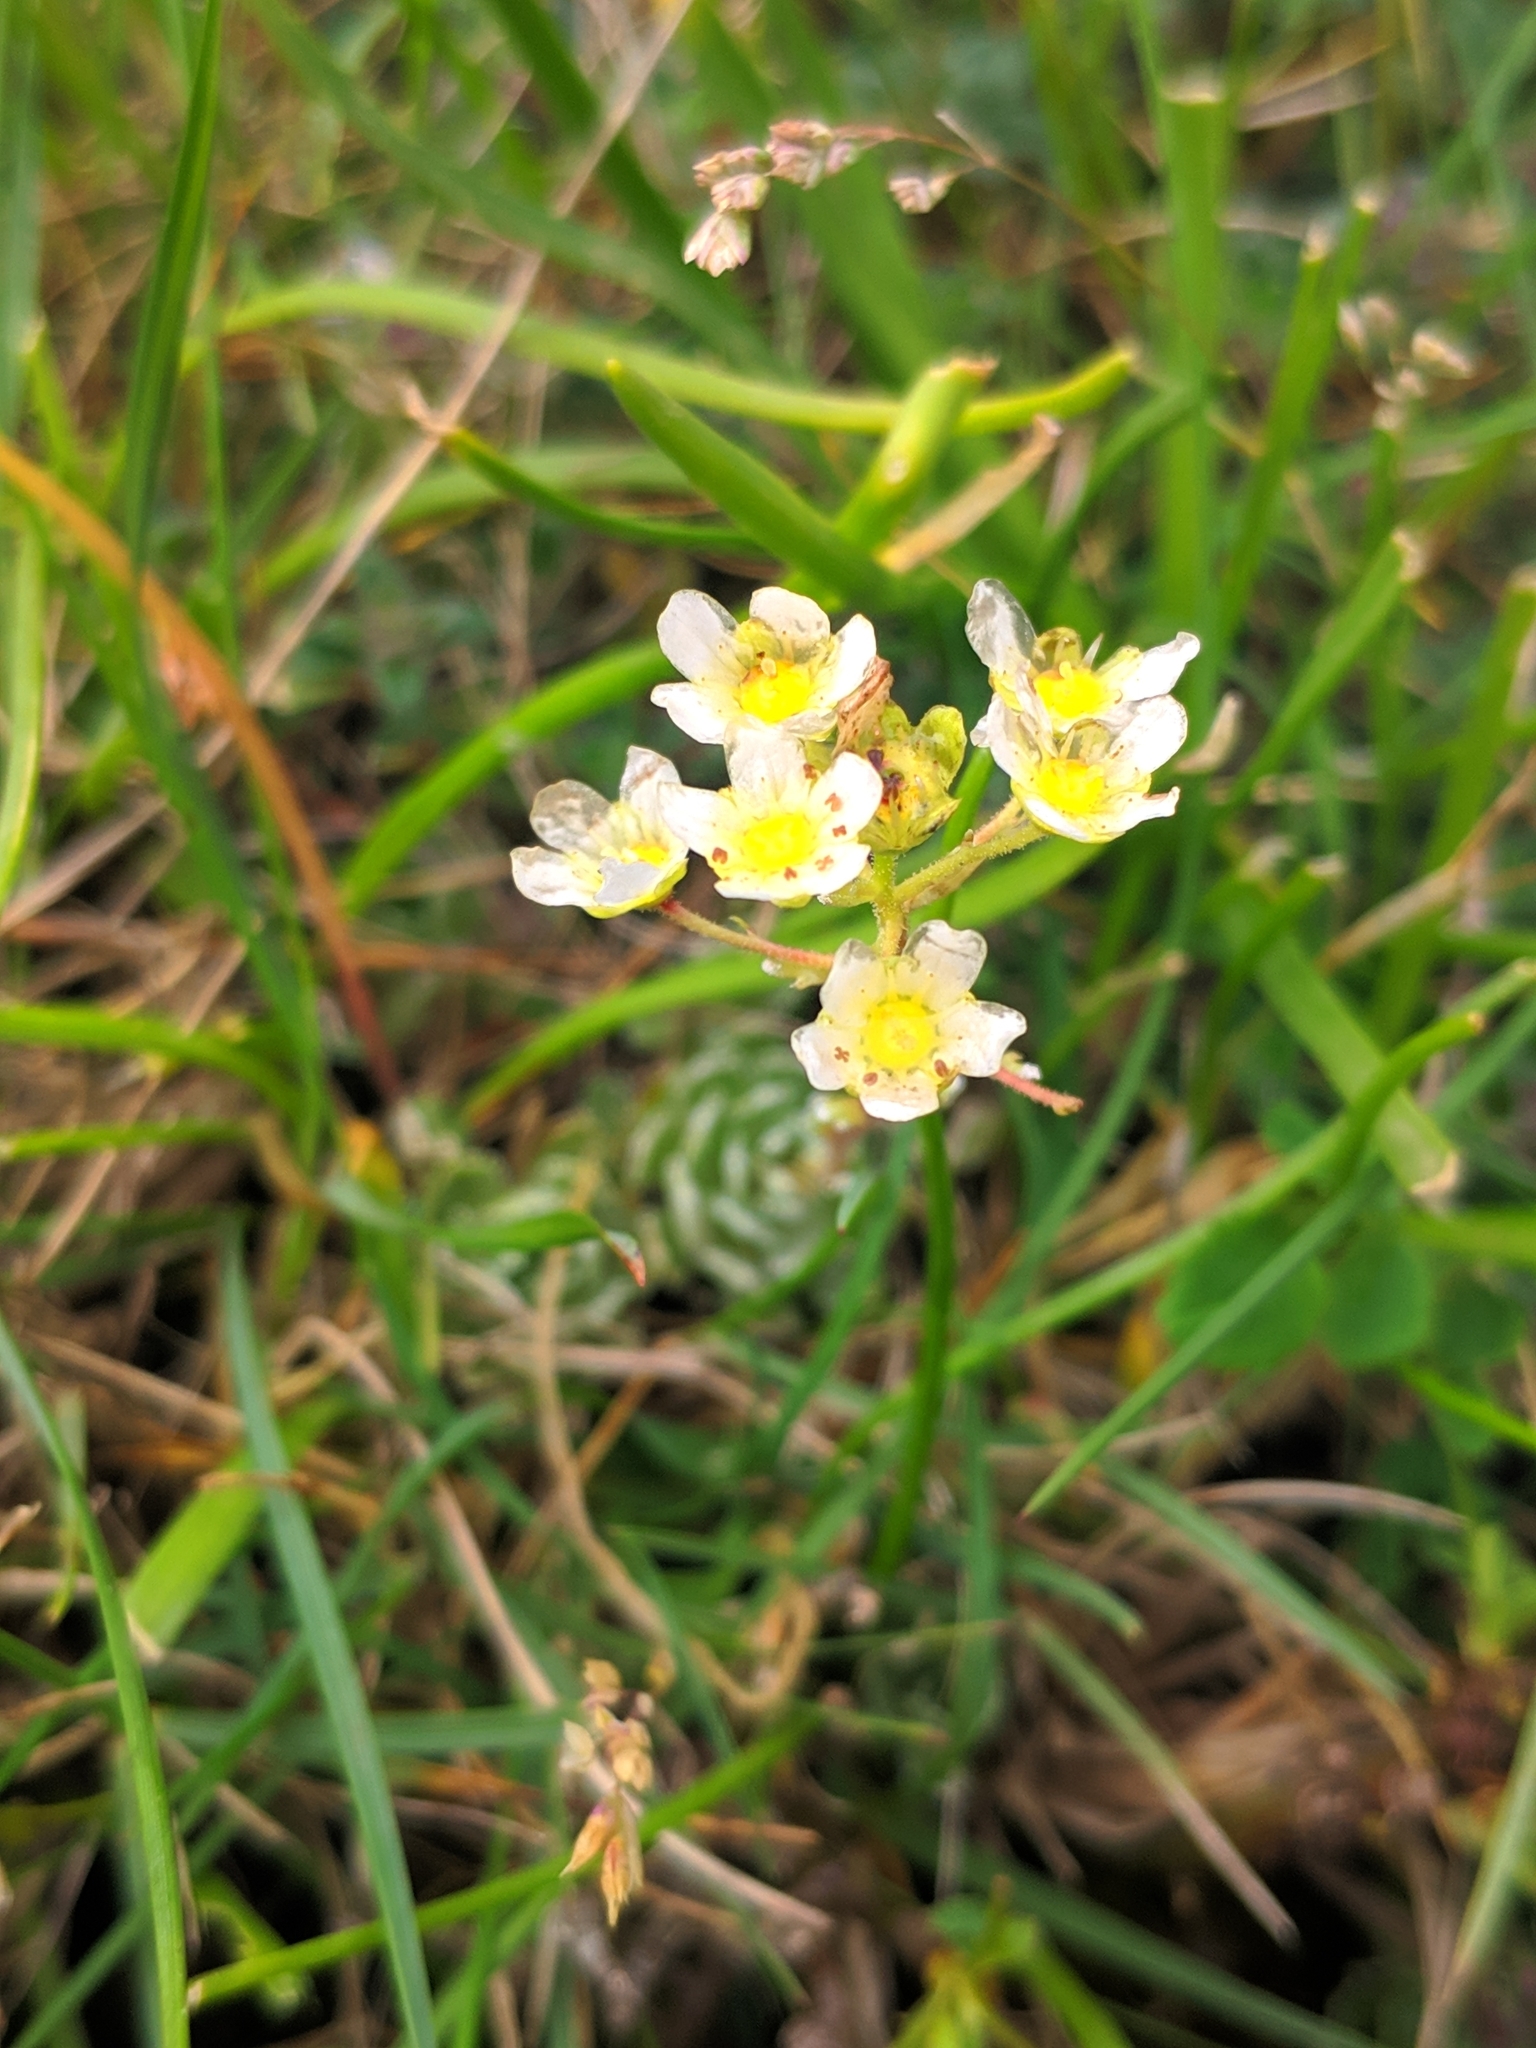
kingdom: Plantae
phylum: Tracheophyta
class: Magnoliopsida
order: Saxifragales
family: Saxifragaceae
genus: Saxifraga
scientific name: Saxifraga paniculata
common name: Livelong saxifrage
